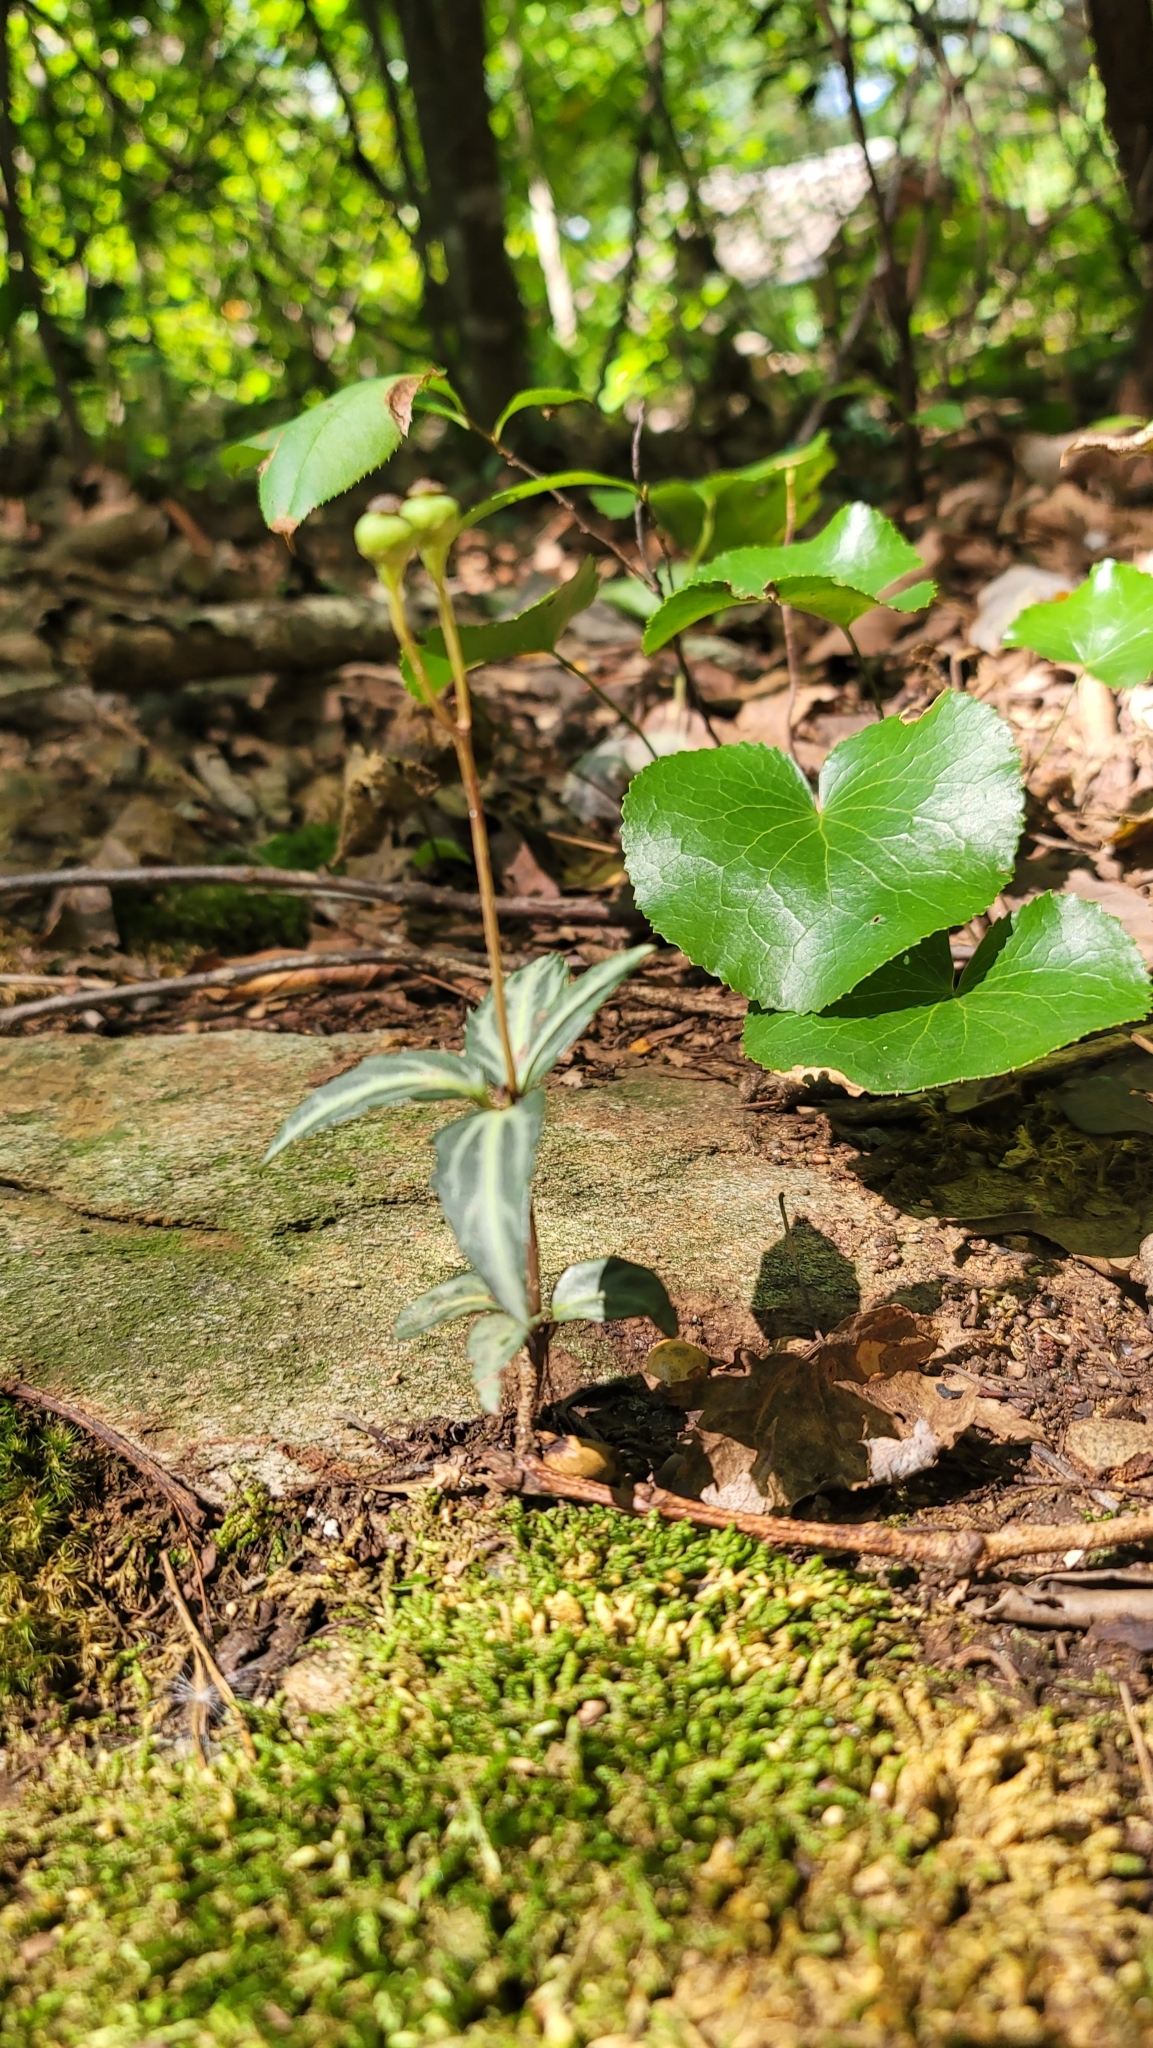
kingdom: Plantae
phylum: Tracheophyta
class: Magnoliopsida
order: Ericales
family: Ericaceae
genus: Chimaphila
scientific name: Chimaphila maculata
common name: Spotted pipsissewa
